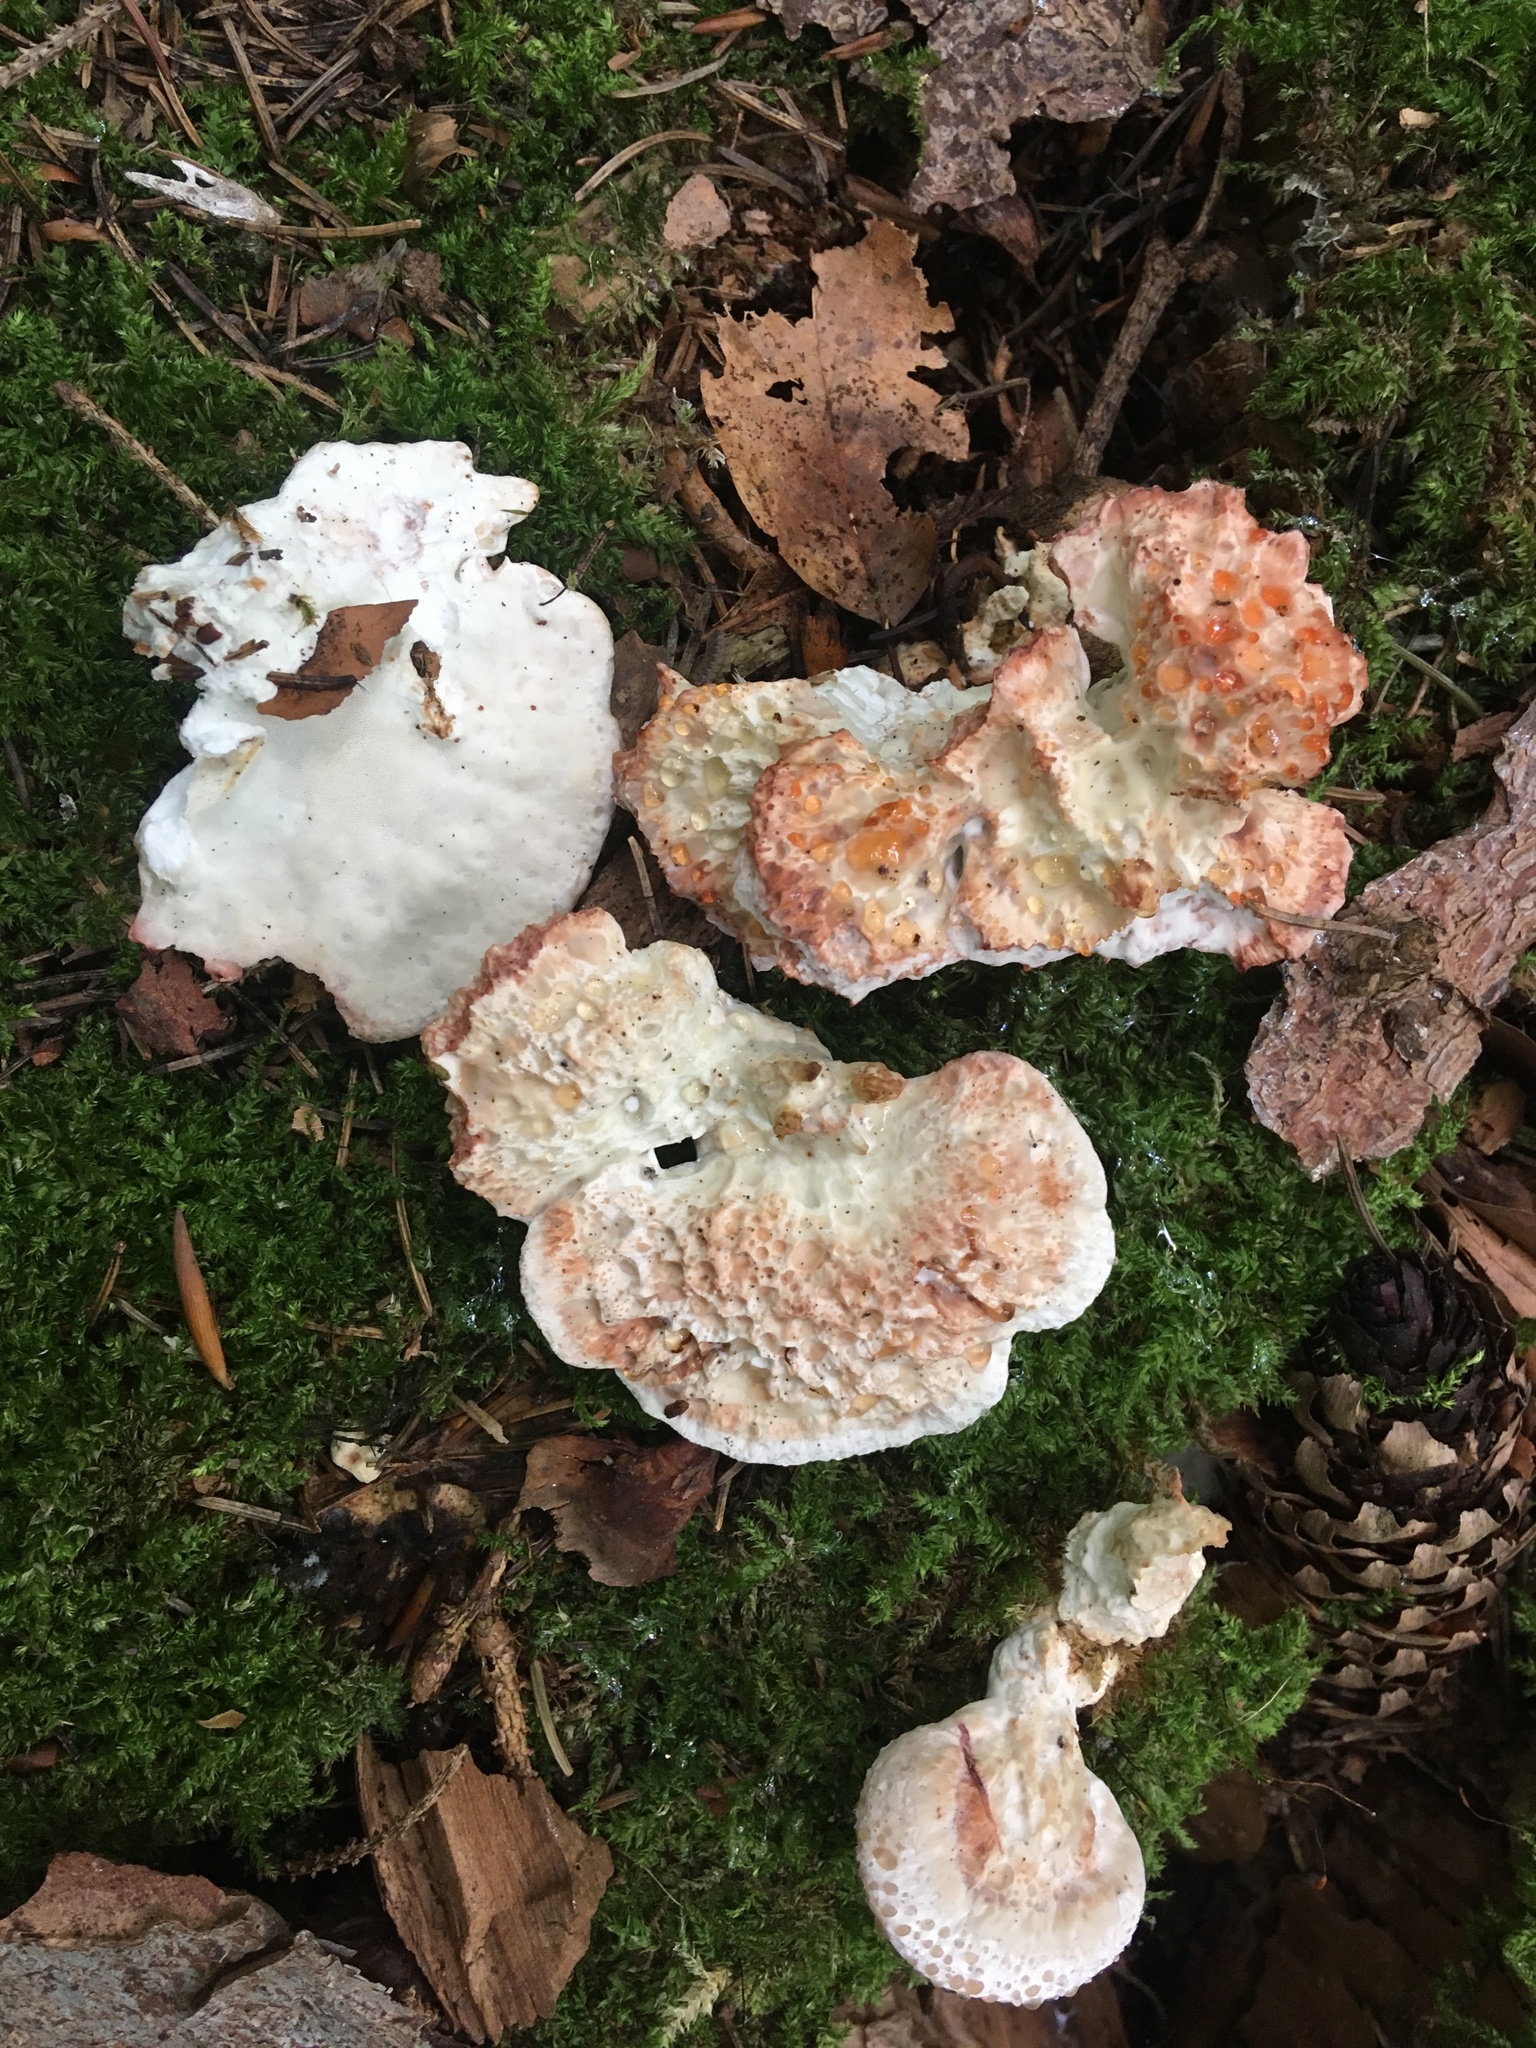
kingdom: Fungi
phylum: Basidiomycota
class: Agaricomycetes
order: Polyporales
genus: Calcipostia
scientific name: Calcipostia guttulata
